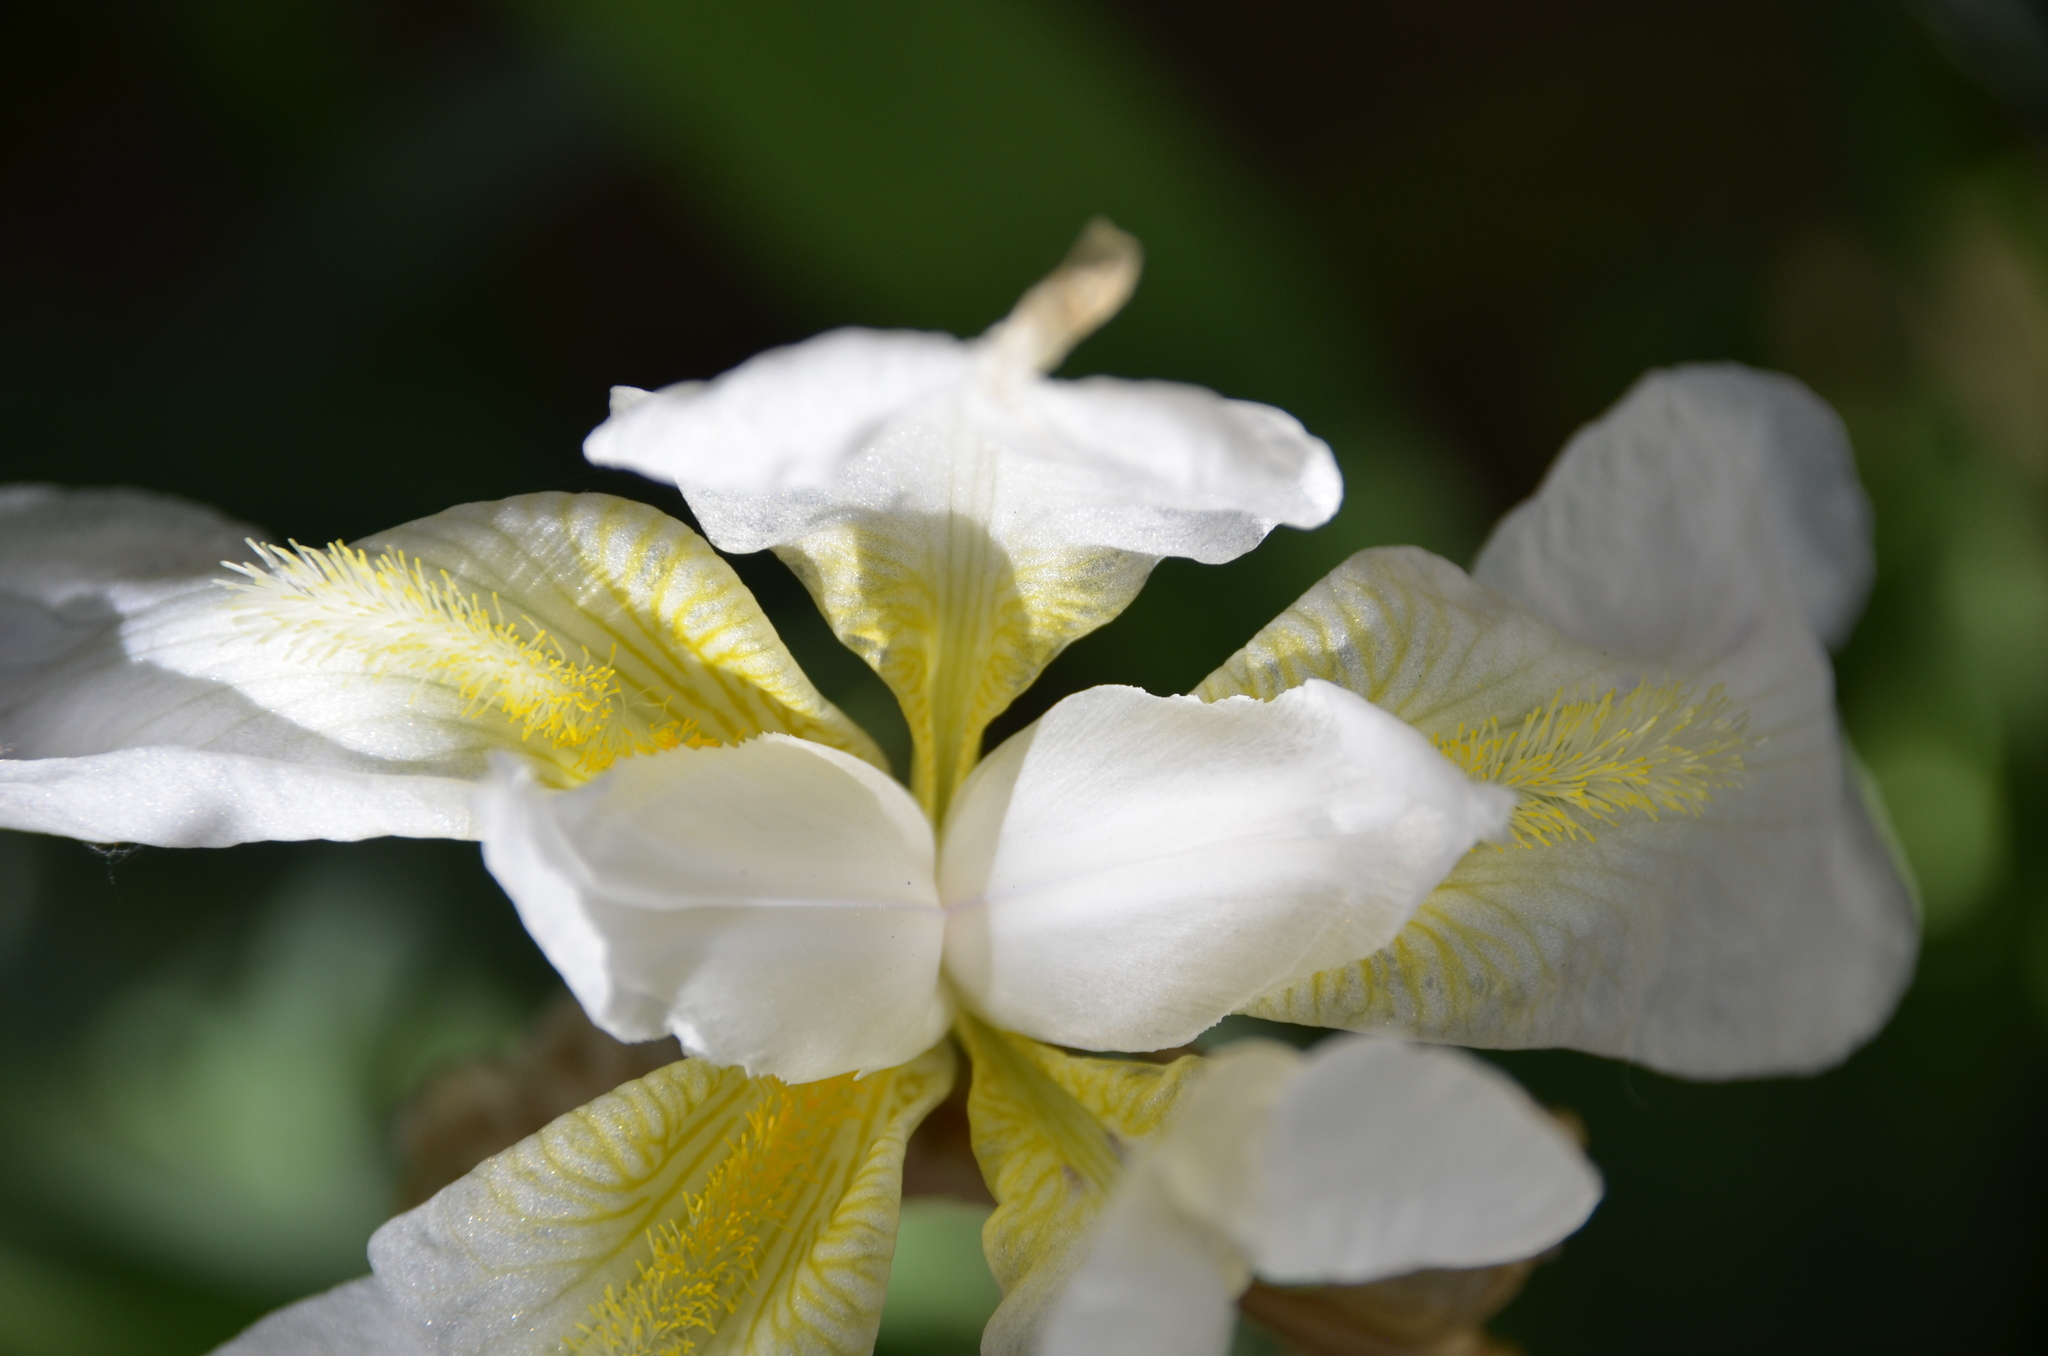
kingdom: Plantae
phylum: Tracheophyta
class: Liliopsida
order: Asparagales
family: Iridaceae
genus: Iris
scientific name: Iris florentina
